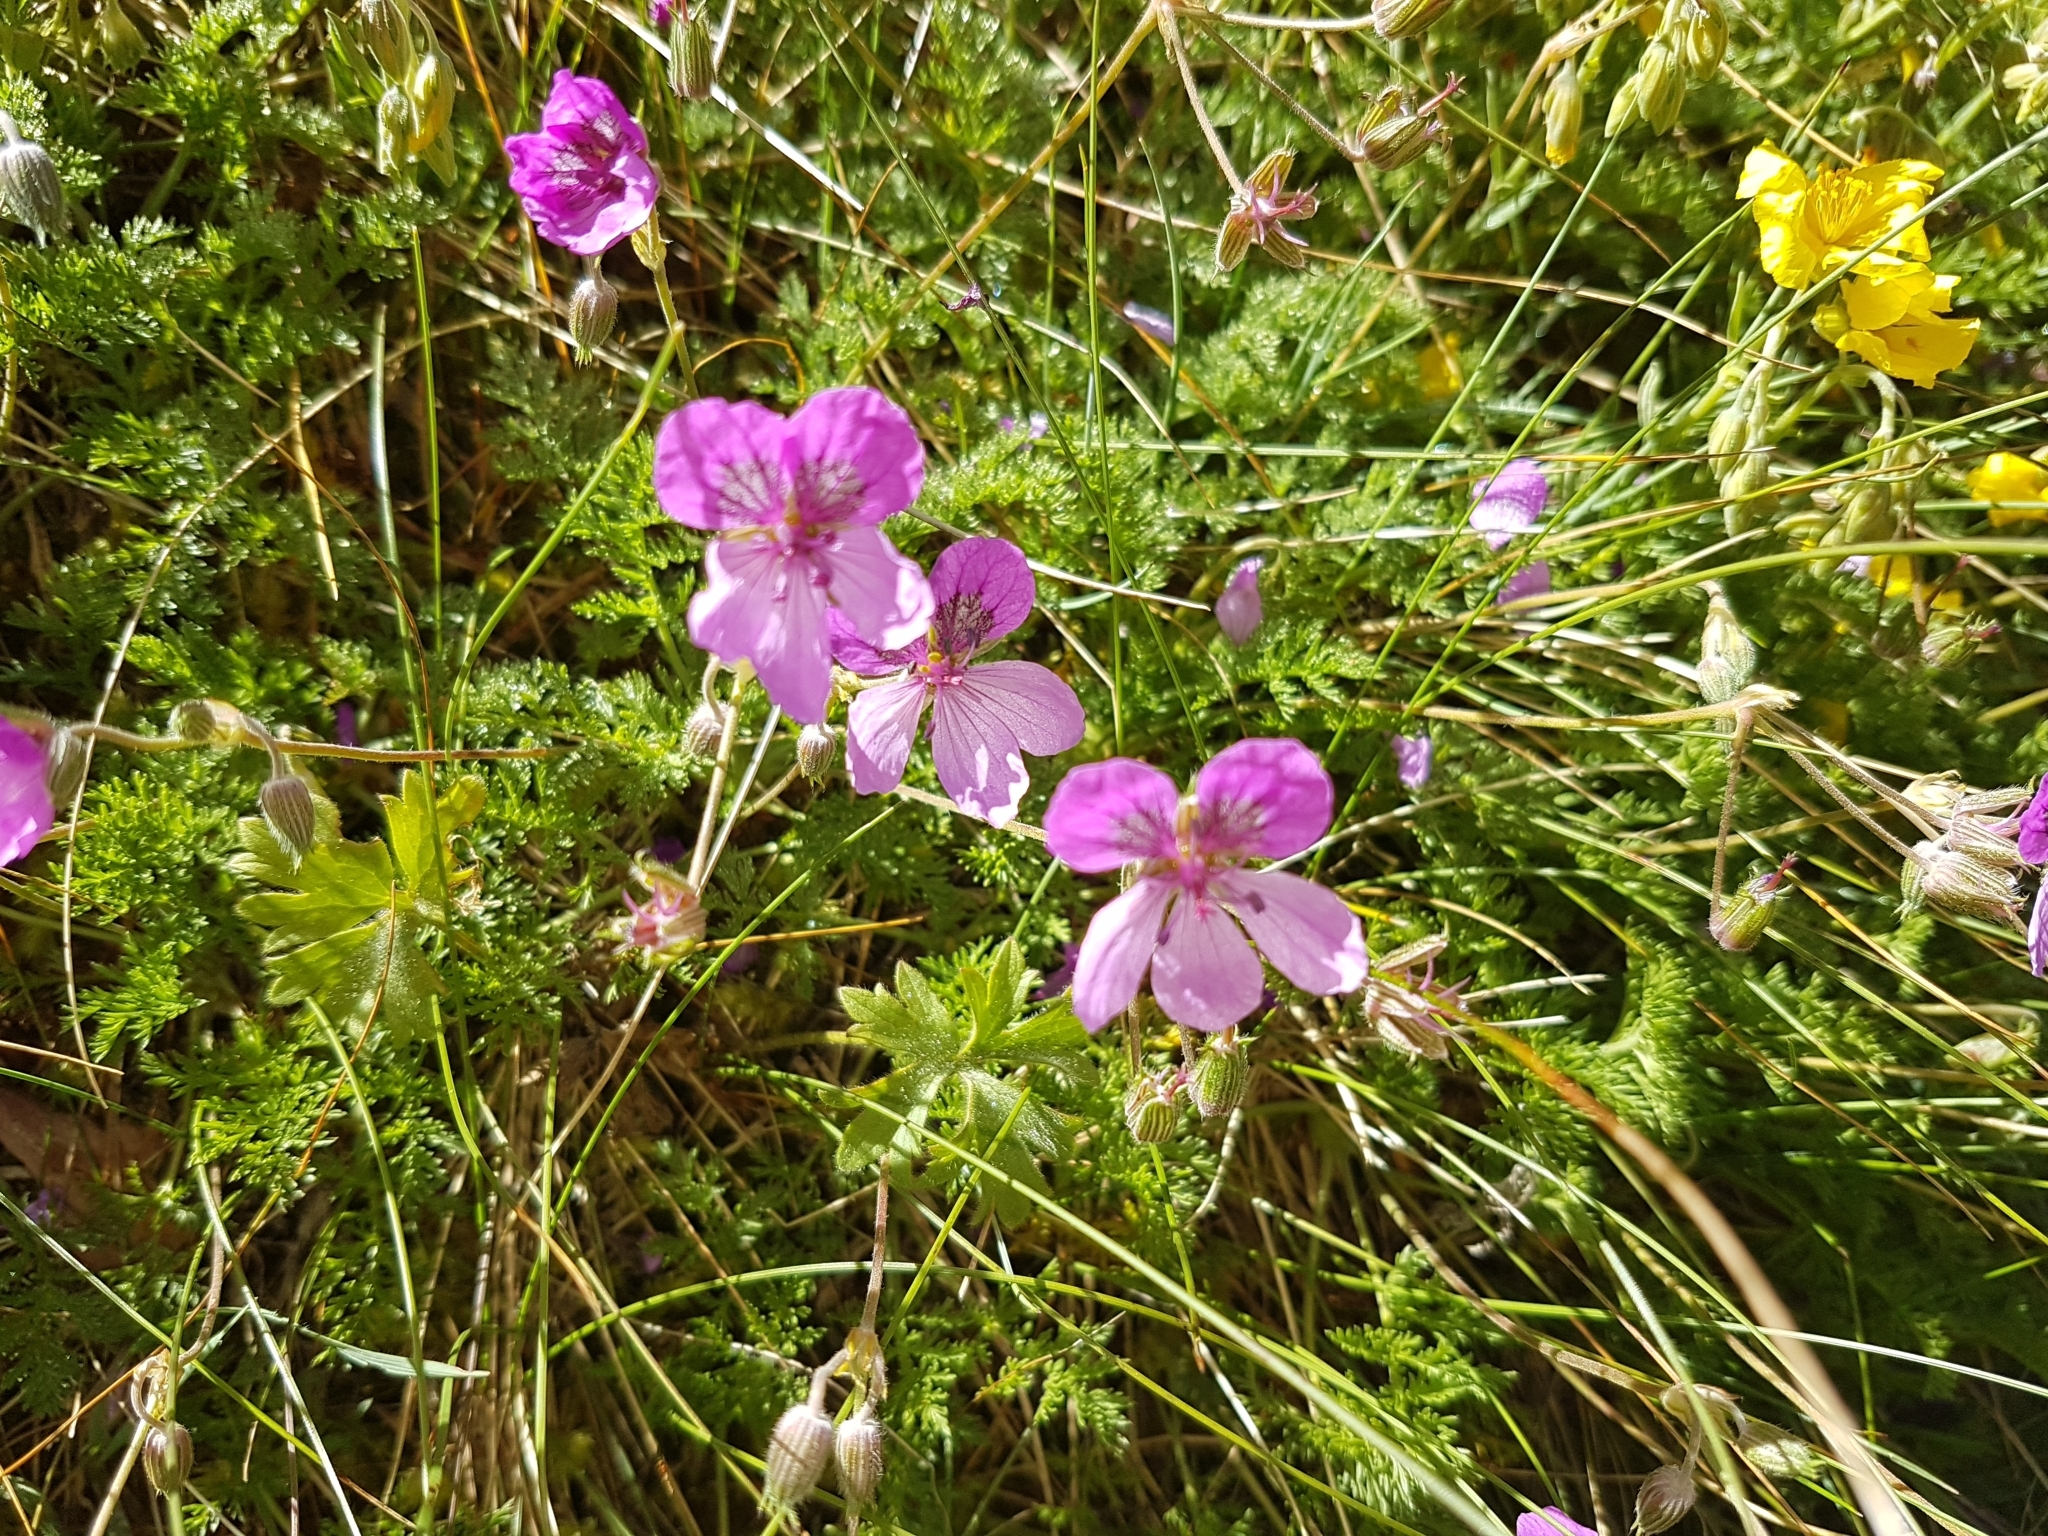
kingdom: Plantae
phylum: Tracheophyta
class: Magnoliopsida
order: Geraniales
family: Geraniaceae
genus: Erodium
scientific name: Erodium glandulosum
